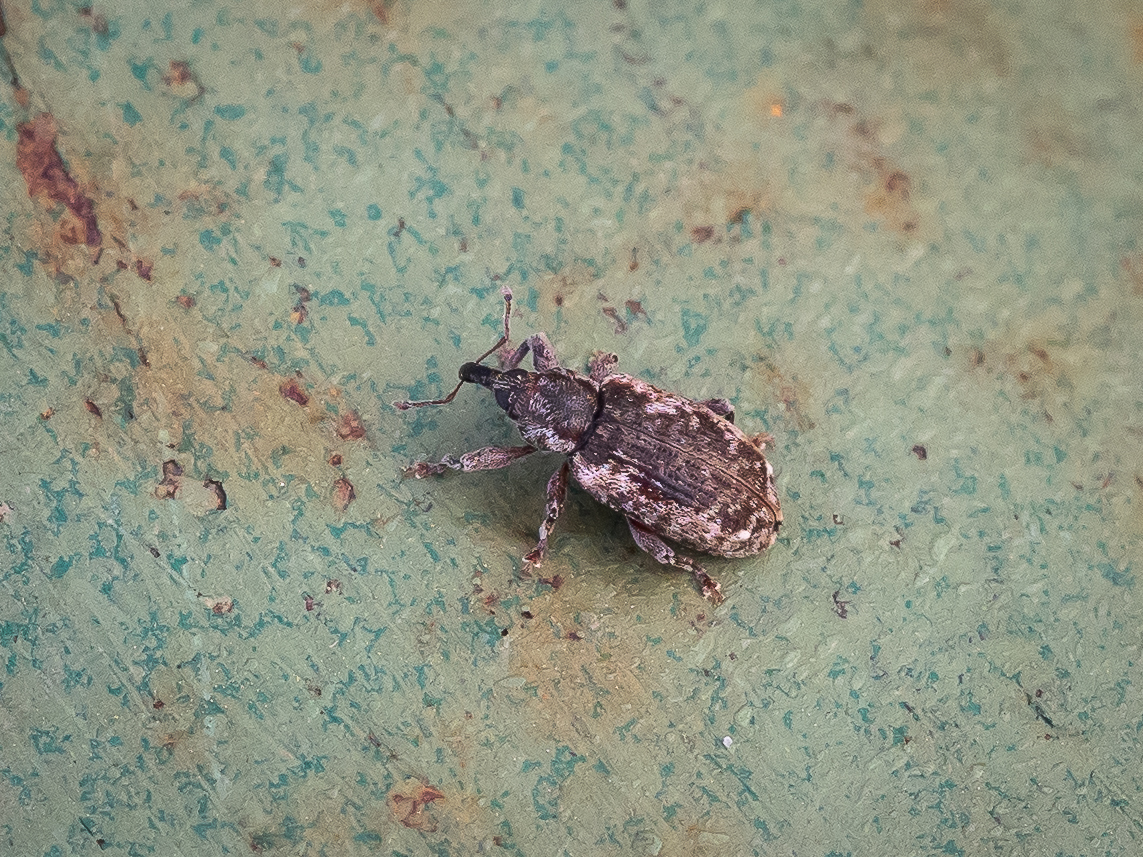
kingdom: Animalia
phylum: Arthropoda
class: Insecta
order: Coleoptera
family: Curculionidae
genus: Dorytomus
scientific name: Dorytomus ictor
